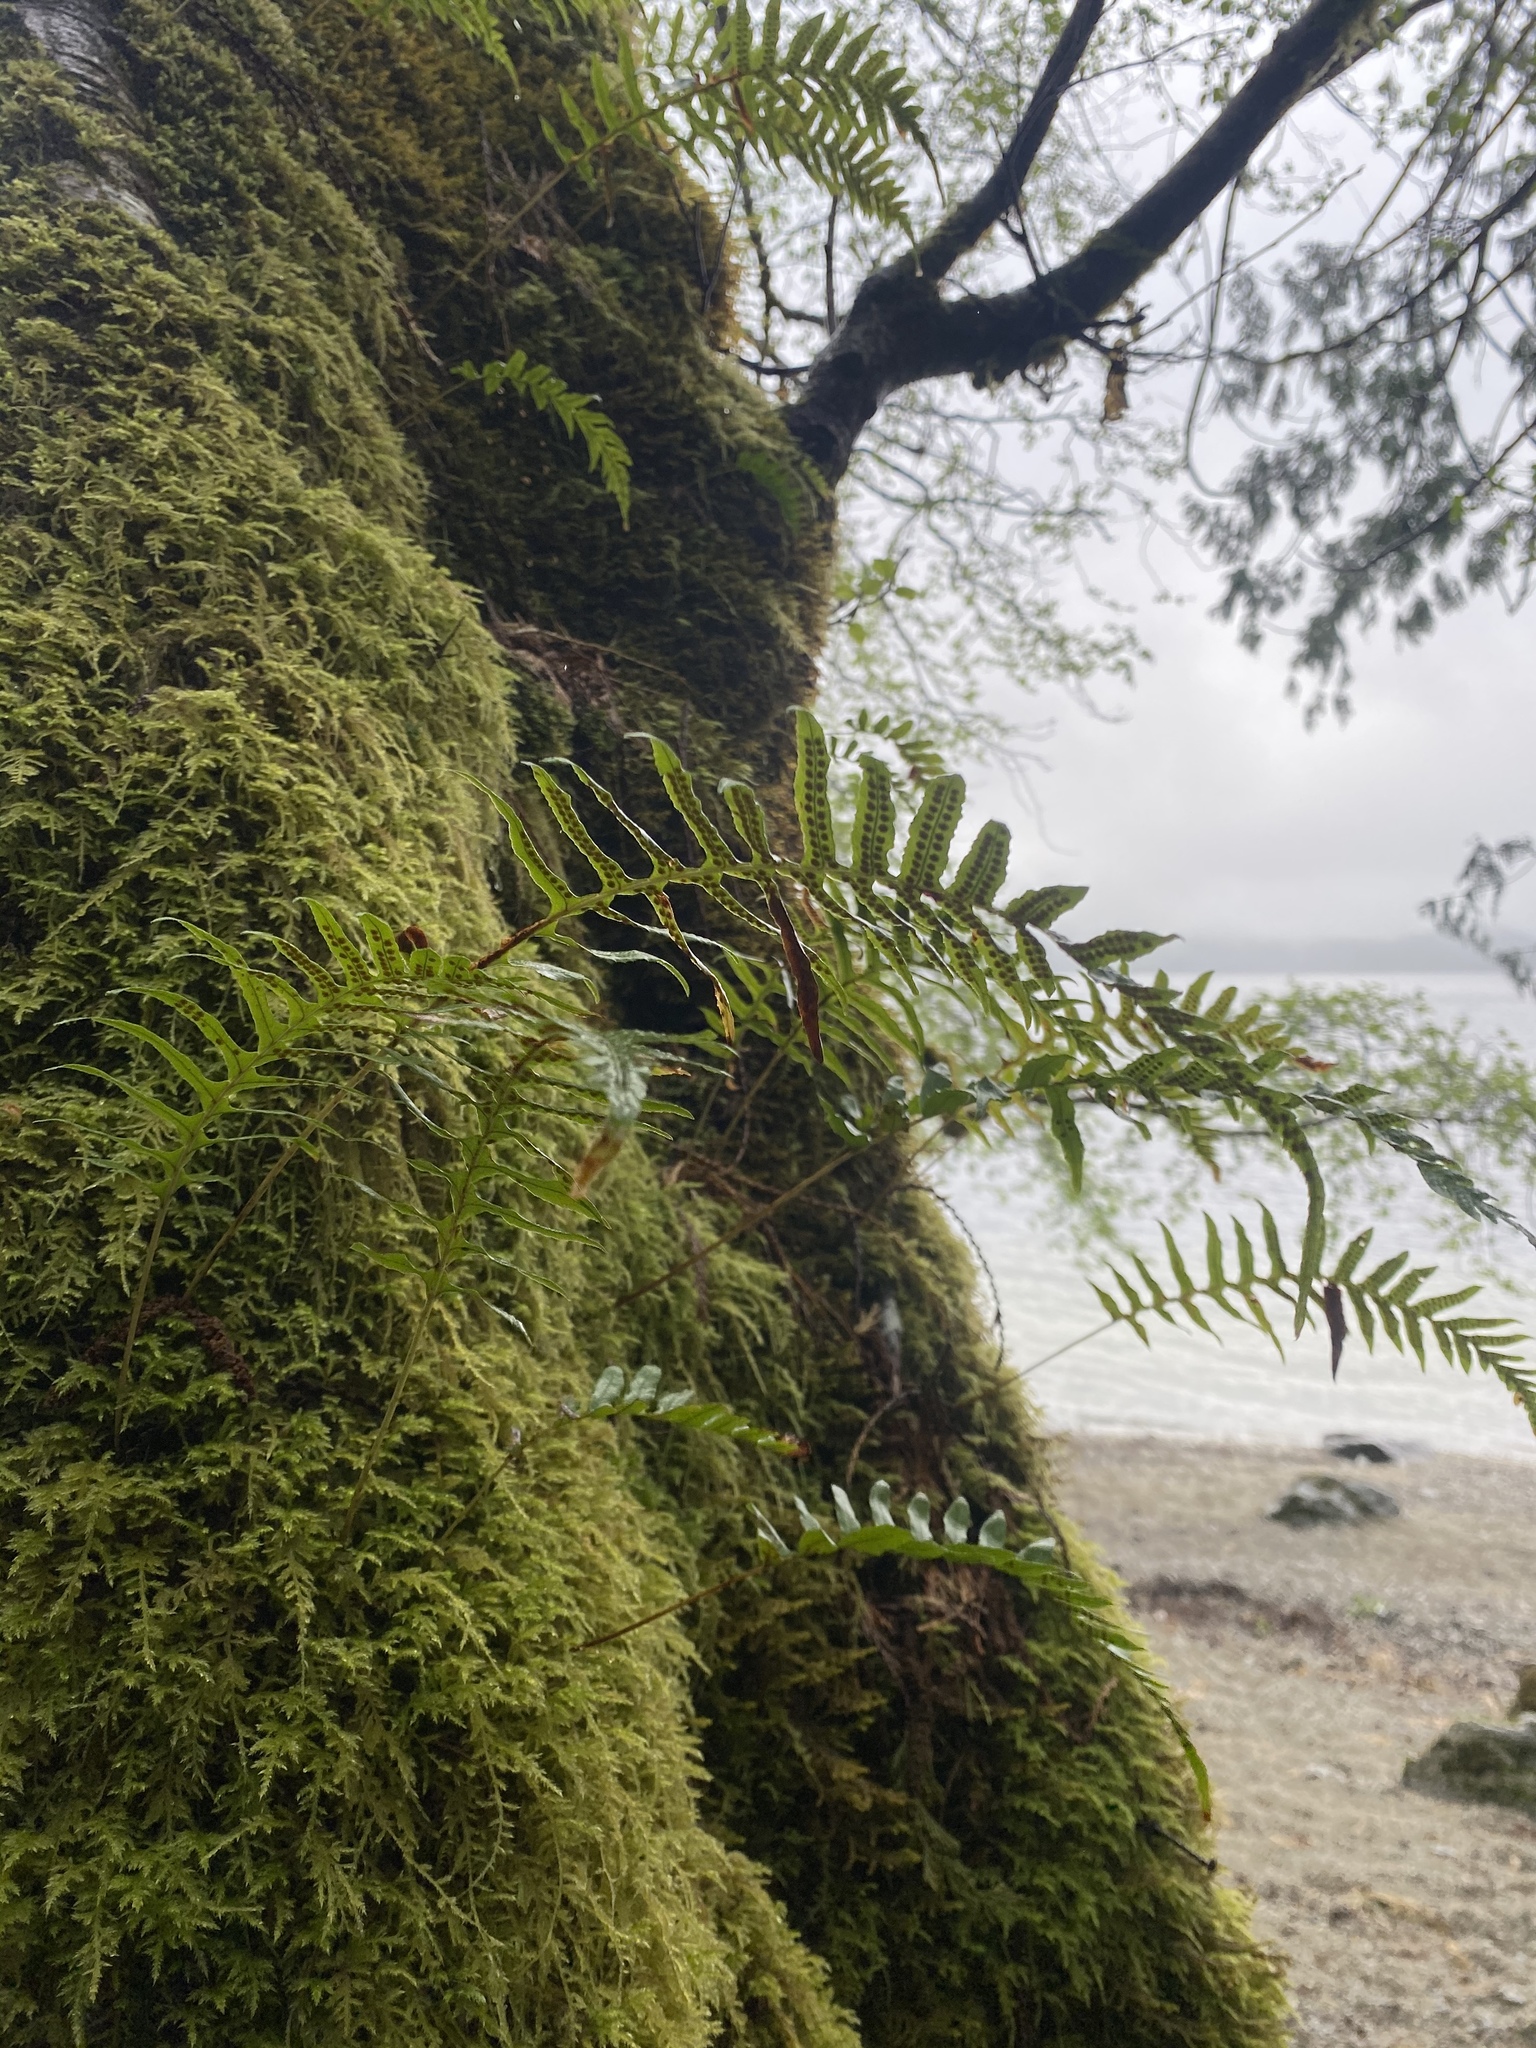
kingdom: Plantae
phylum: Tracheophyta
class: Polypodiopsida
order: Polypodiales
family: Polypodiaceae
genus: Polypodium
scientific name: Polypodium glycyrrhiza
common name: Licorice fern
